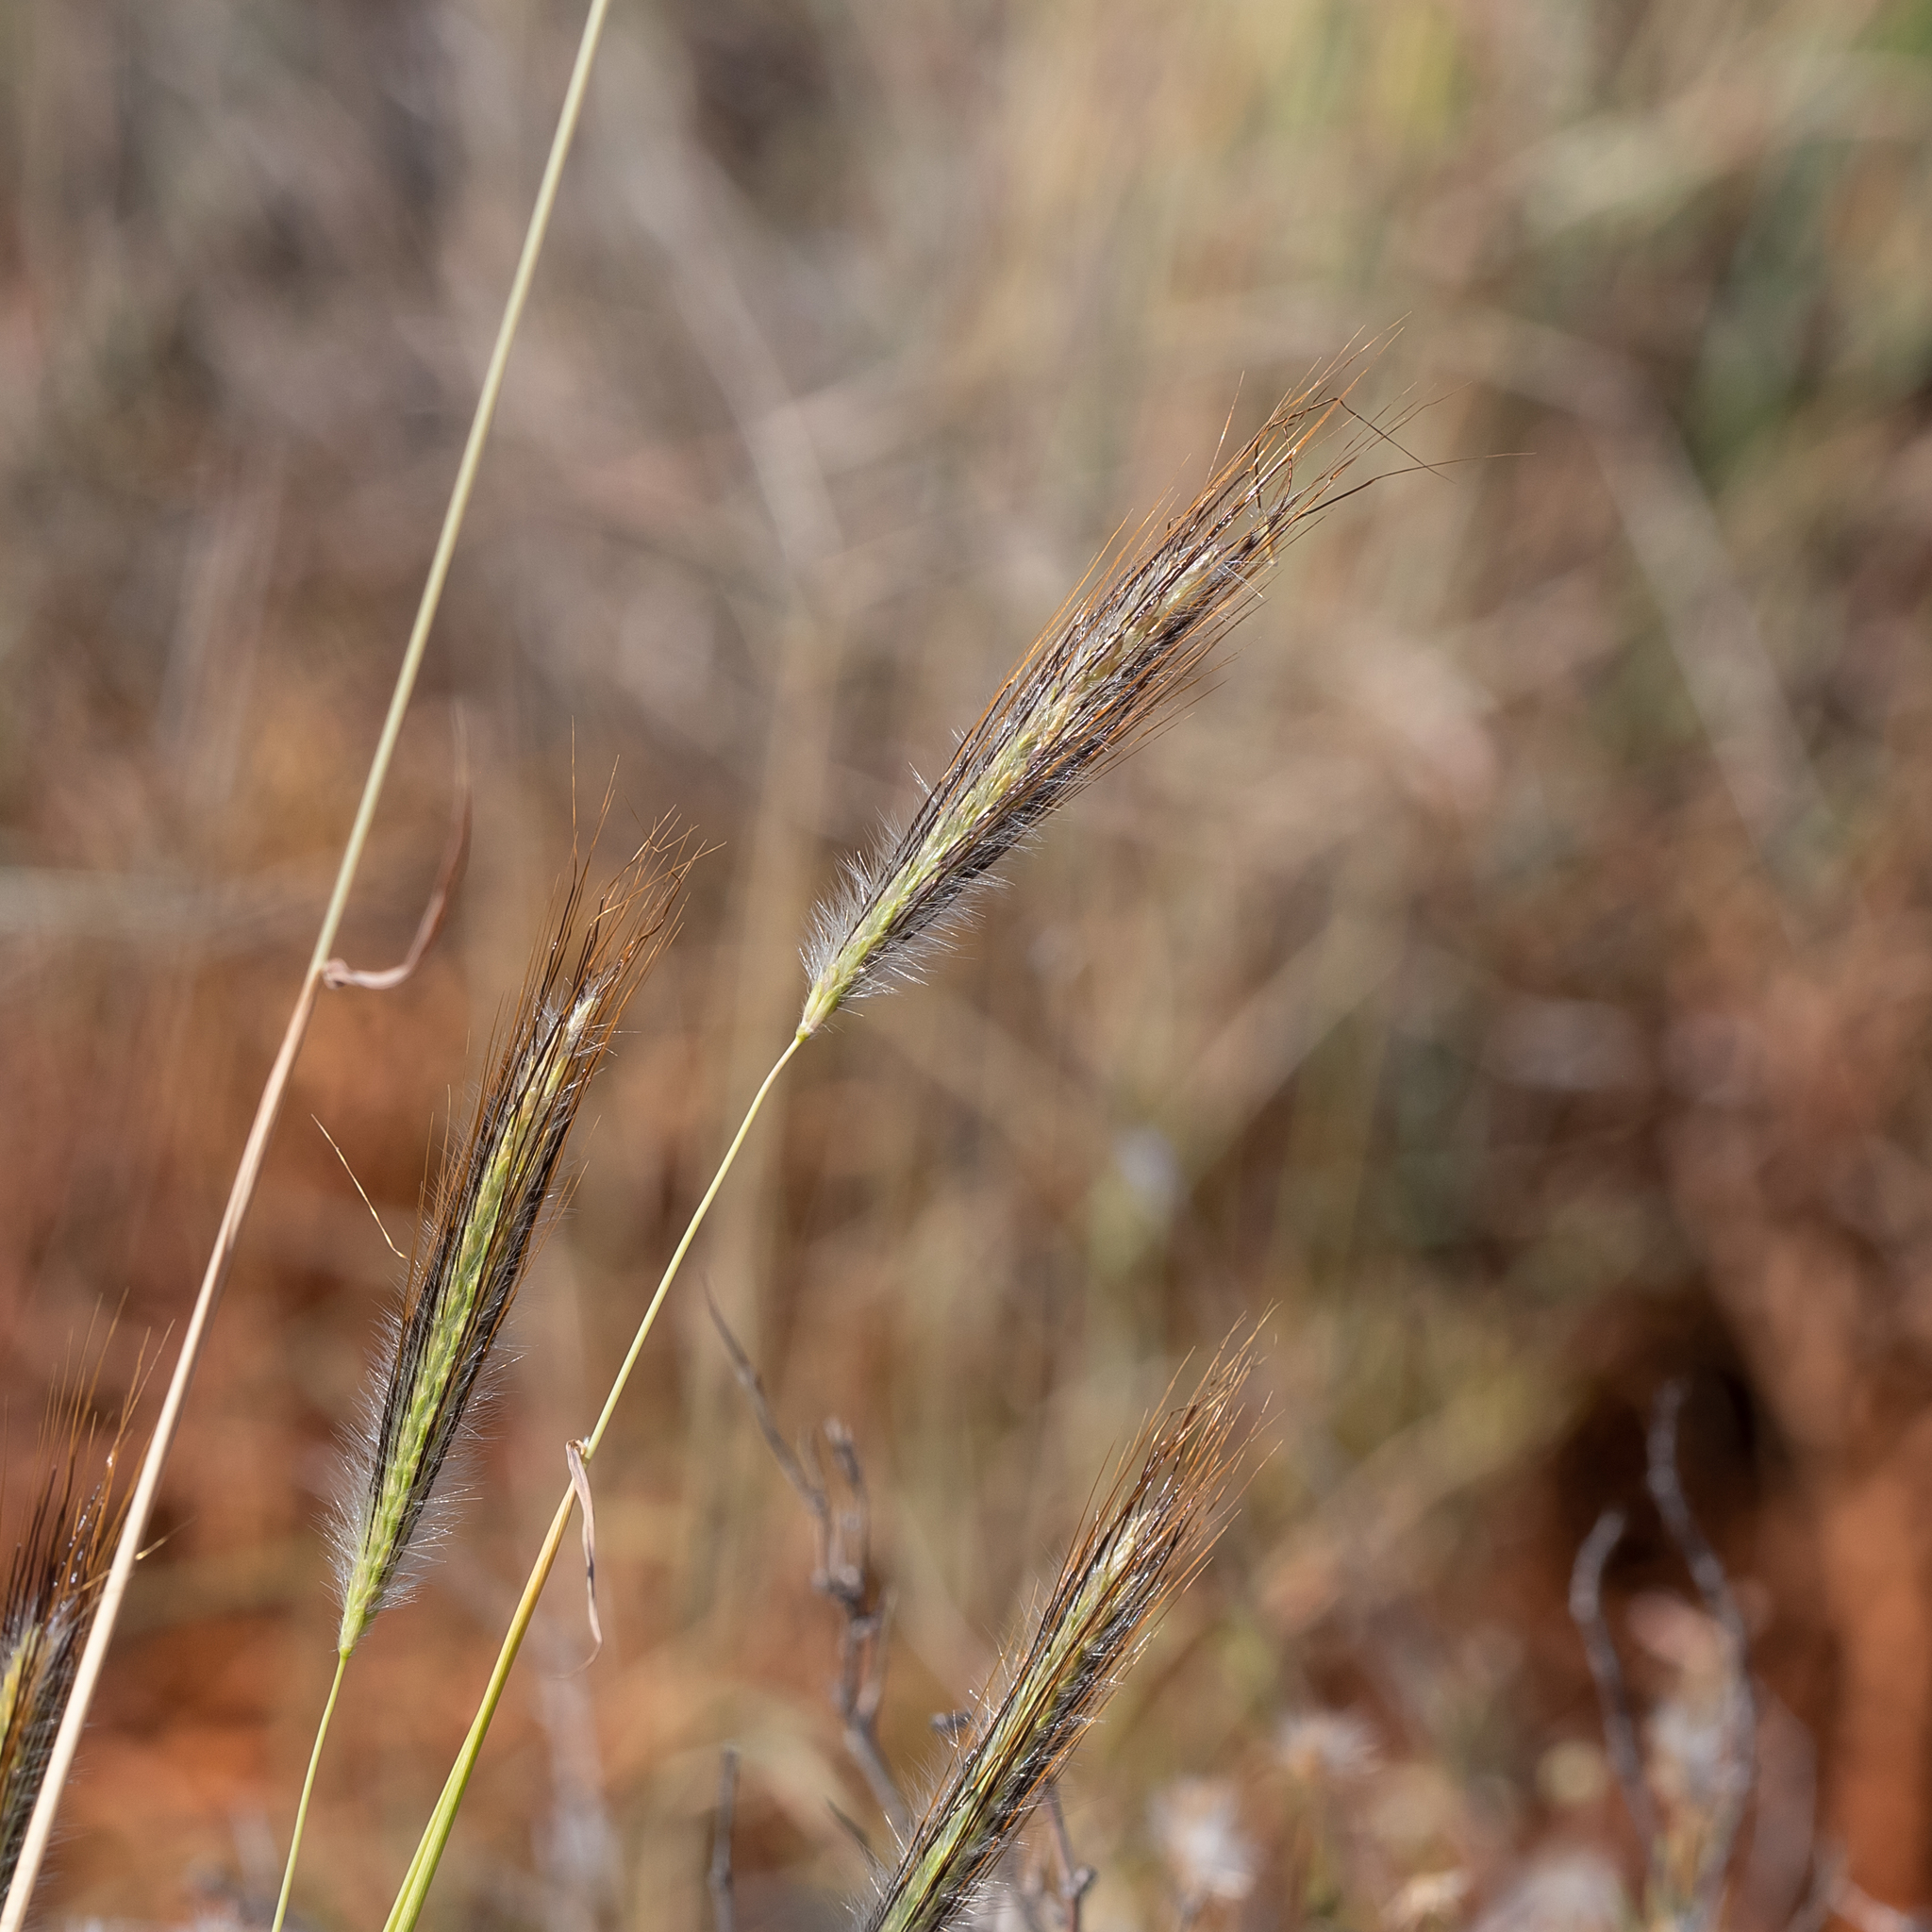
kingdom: Plantae
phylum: Tracheophyta
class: Liliopsida
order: Poales
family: Poaceae
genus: Dichanthium
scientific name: Dichanthium sericeum
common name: Silky bluestem
